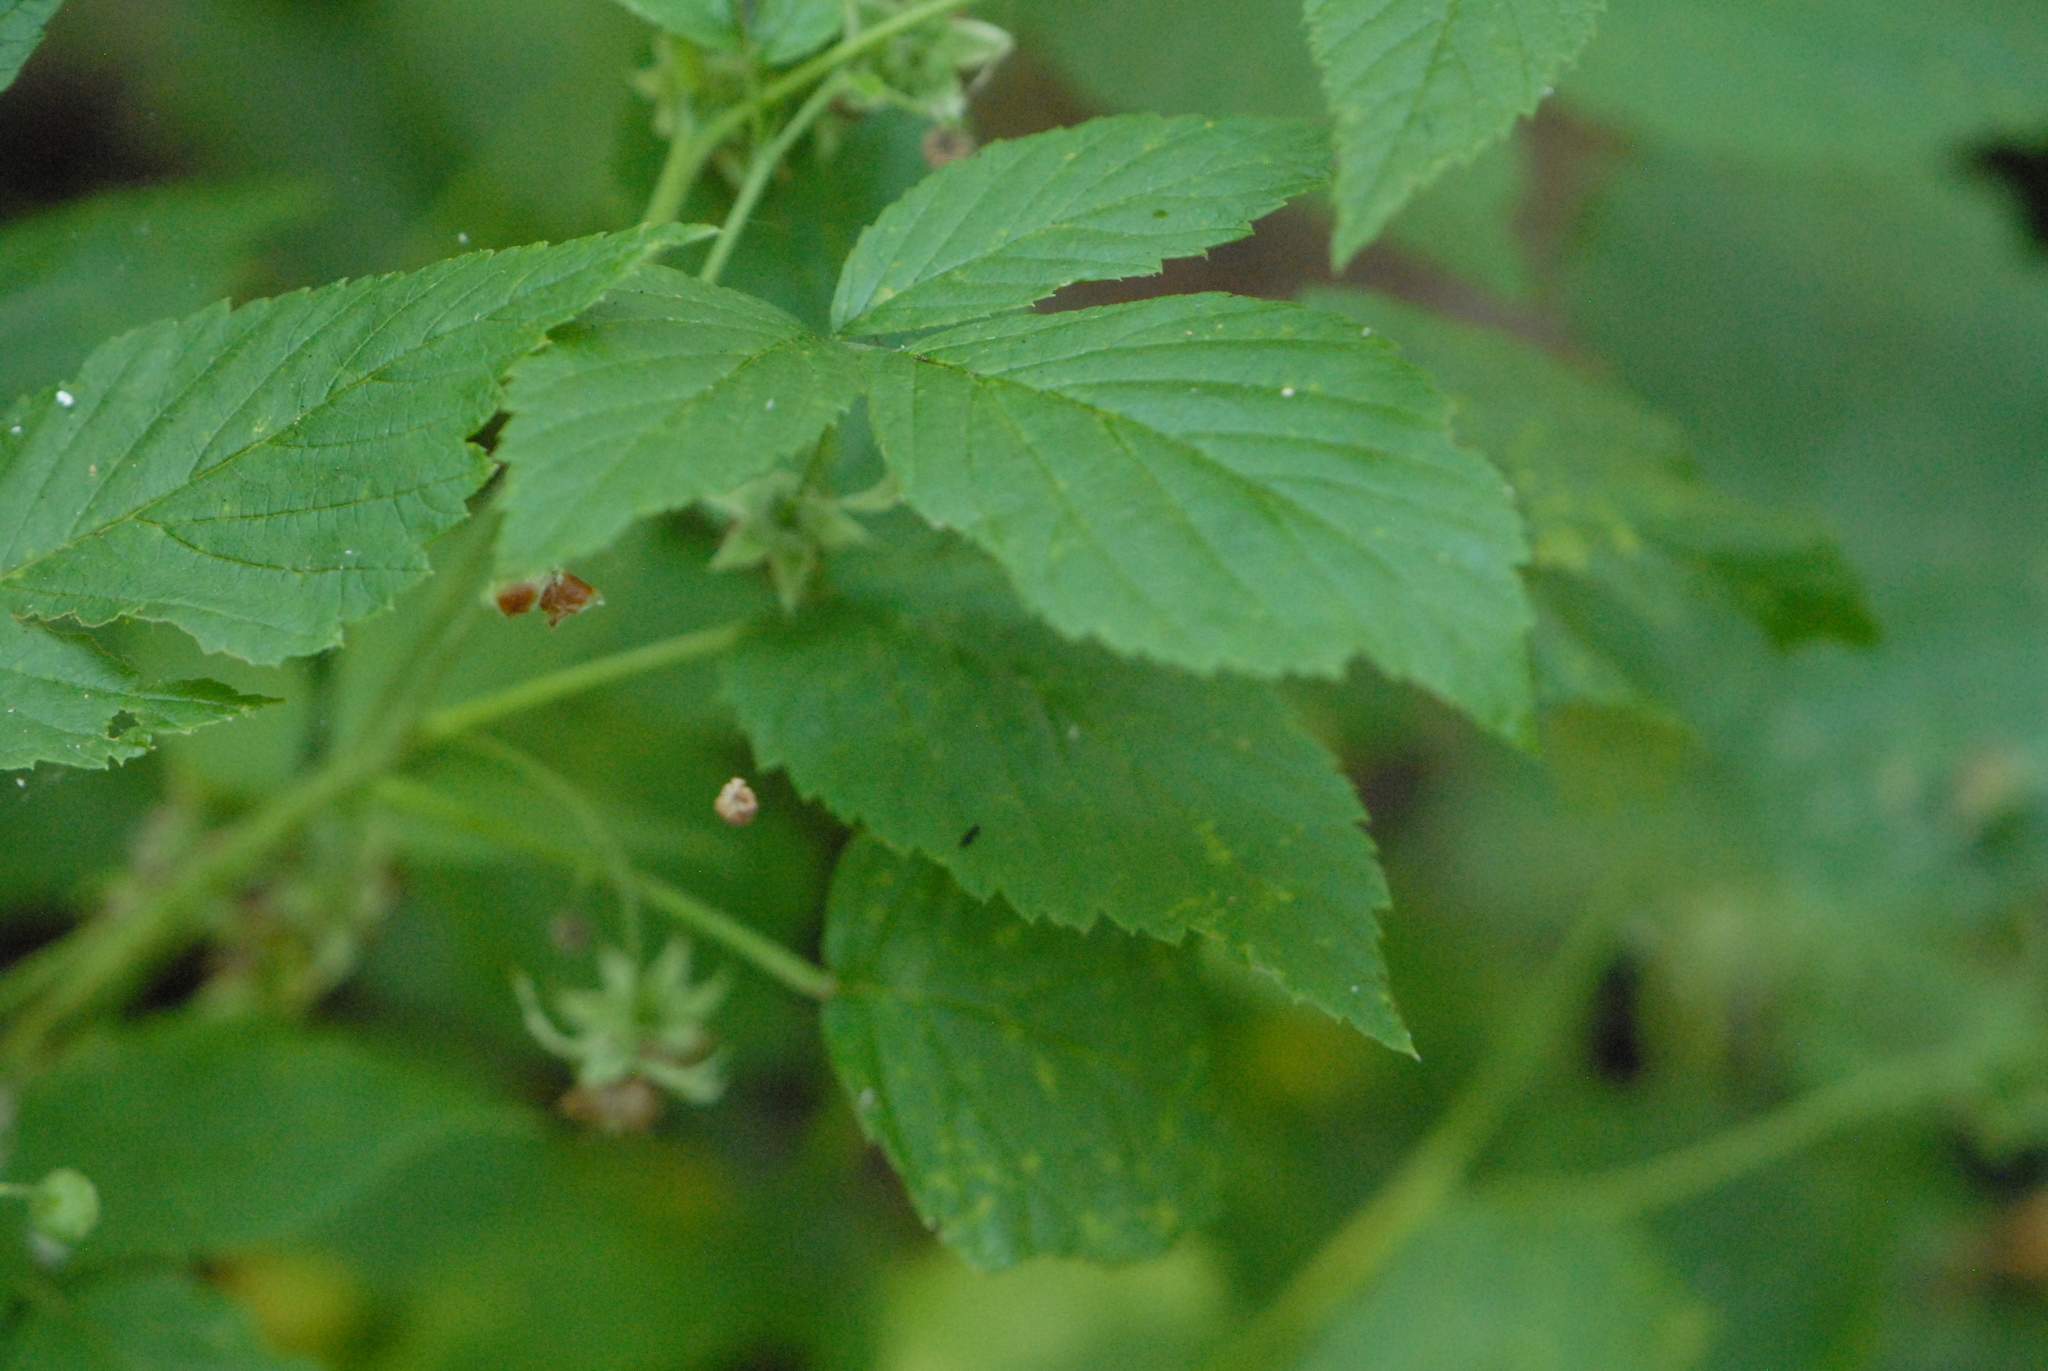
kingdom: Plantae
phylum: Tracheophyta
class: Magnoliopsida
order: Rosales
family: Rosaceae
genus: Rubus
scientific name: Rubus idaeus
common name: Raspberry
